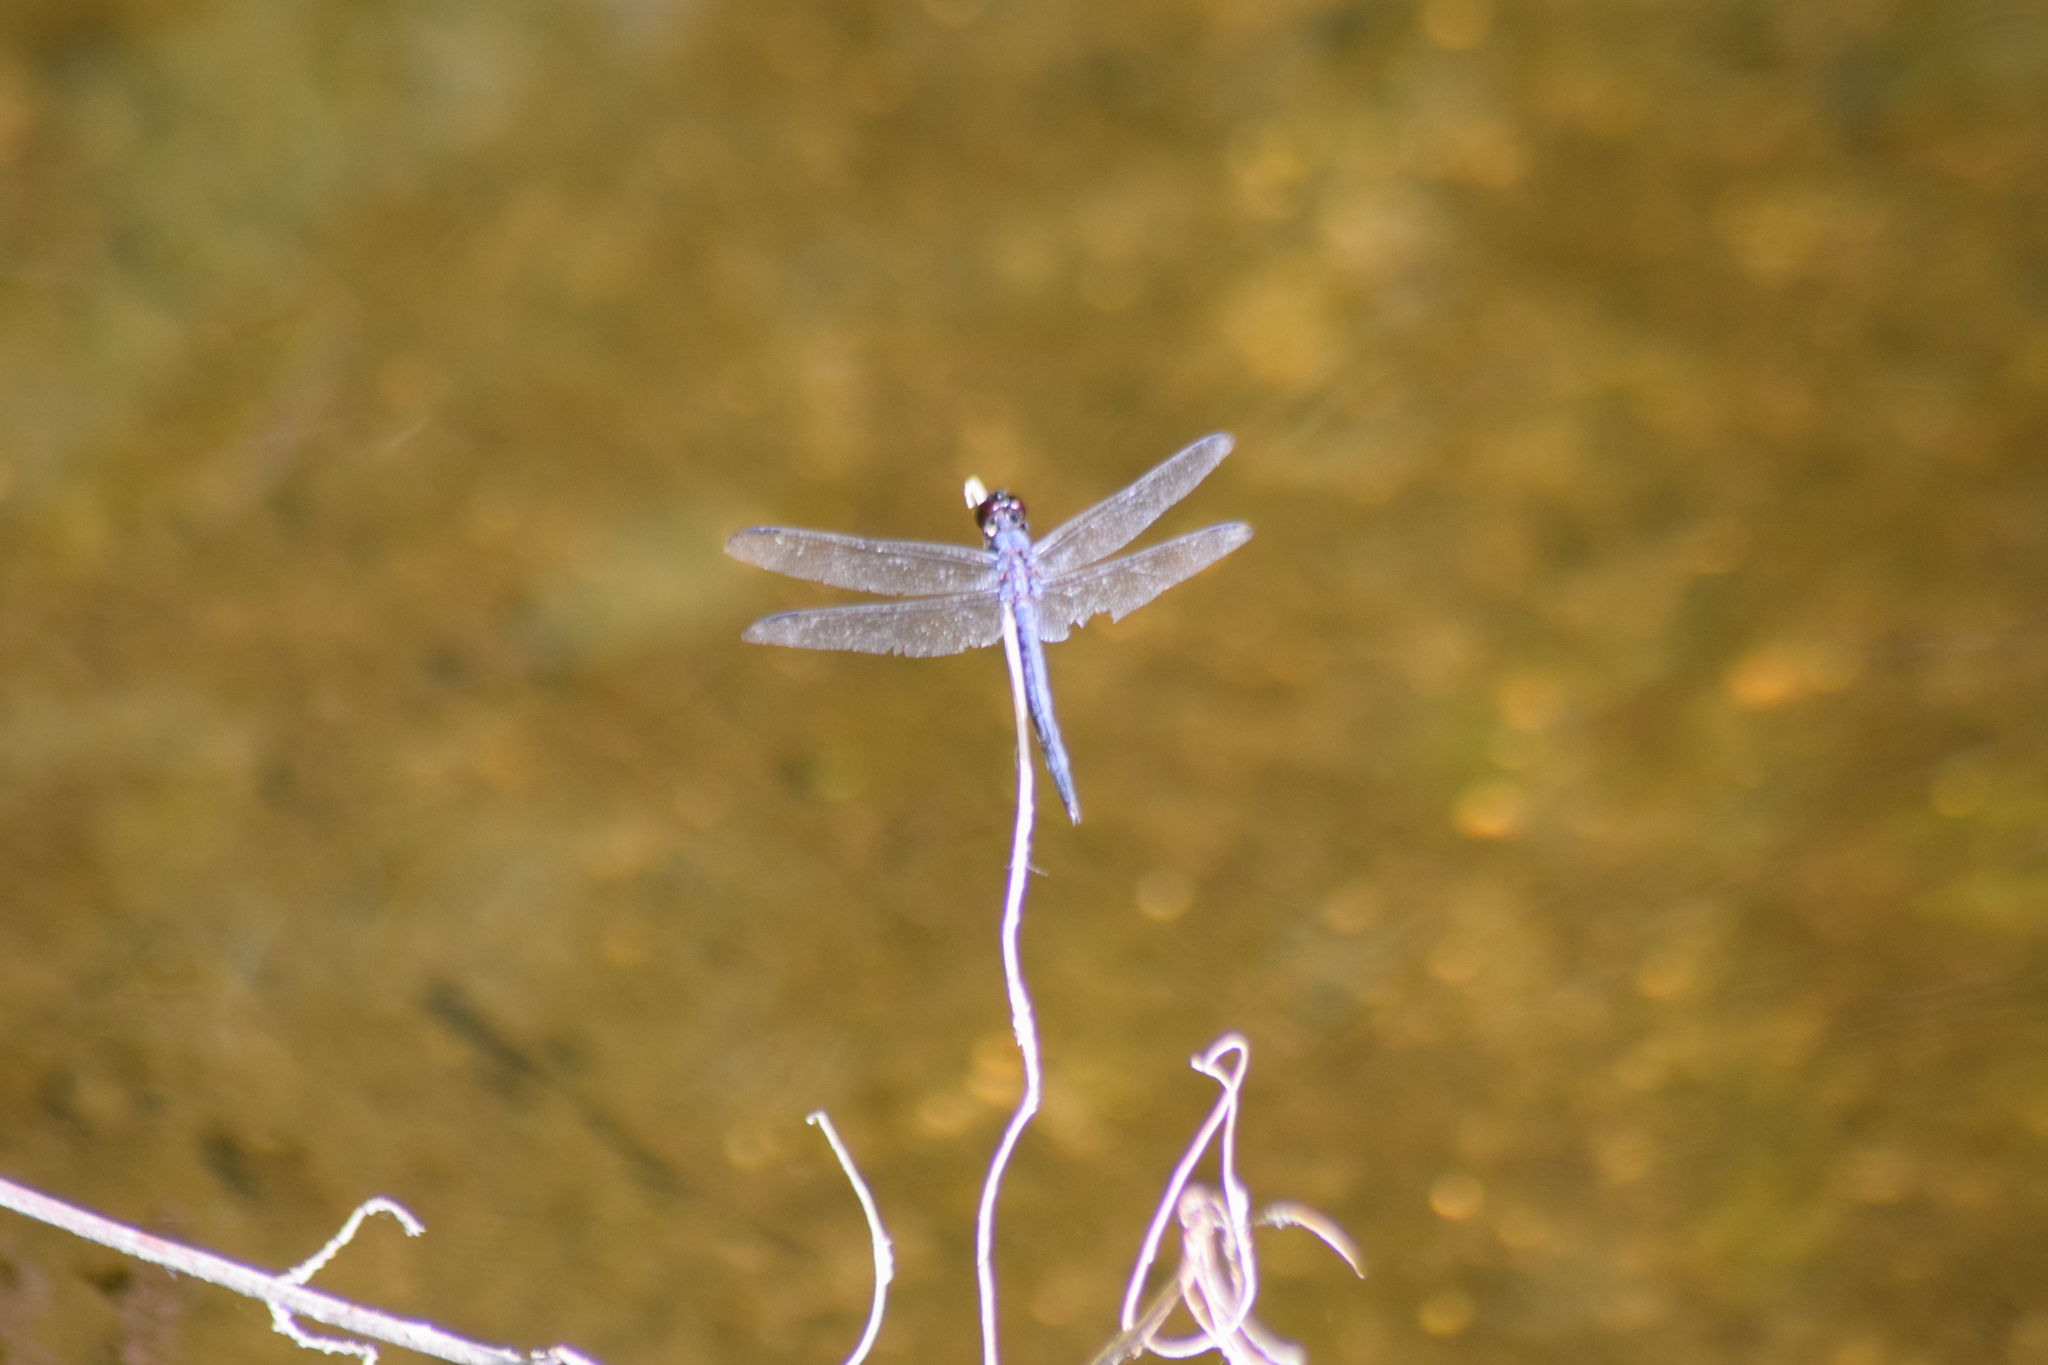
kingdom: Animalia
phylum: Arthropoda
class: Insecta
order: Odonata
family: Libellulidae
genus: Libellula
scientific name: Libellula incesta
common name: Slaty skimmer
